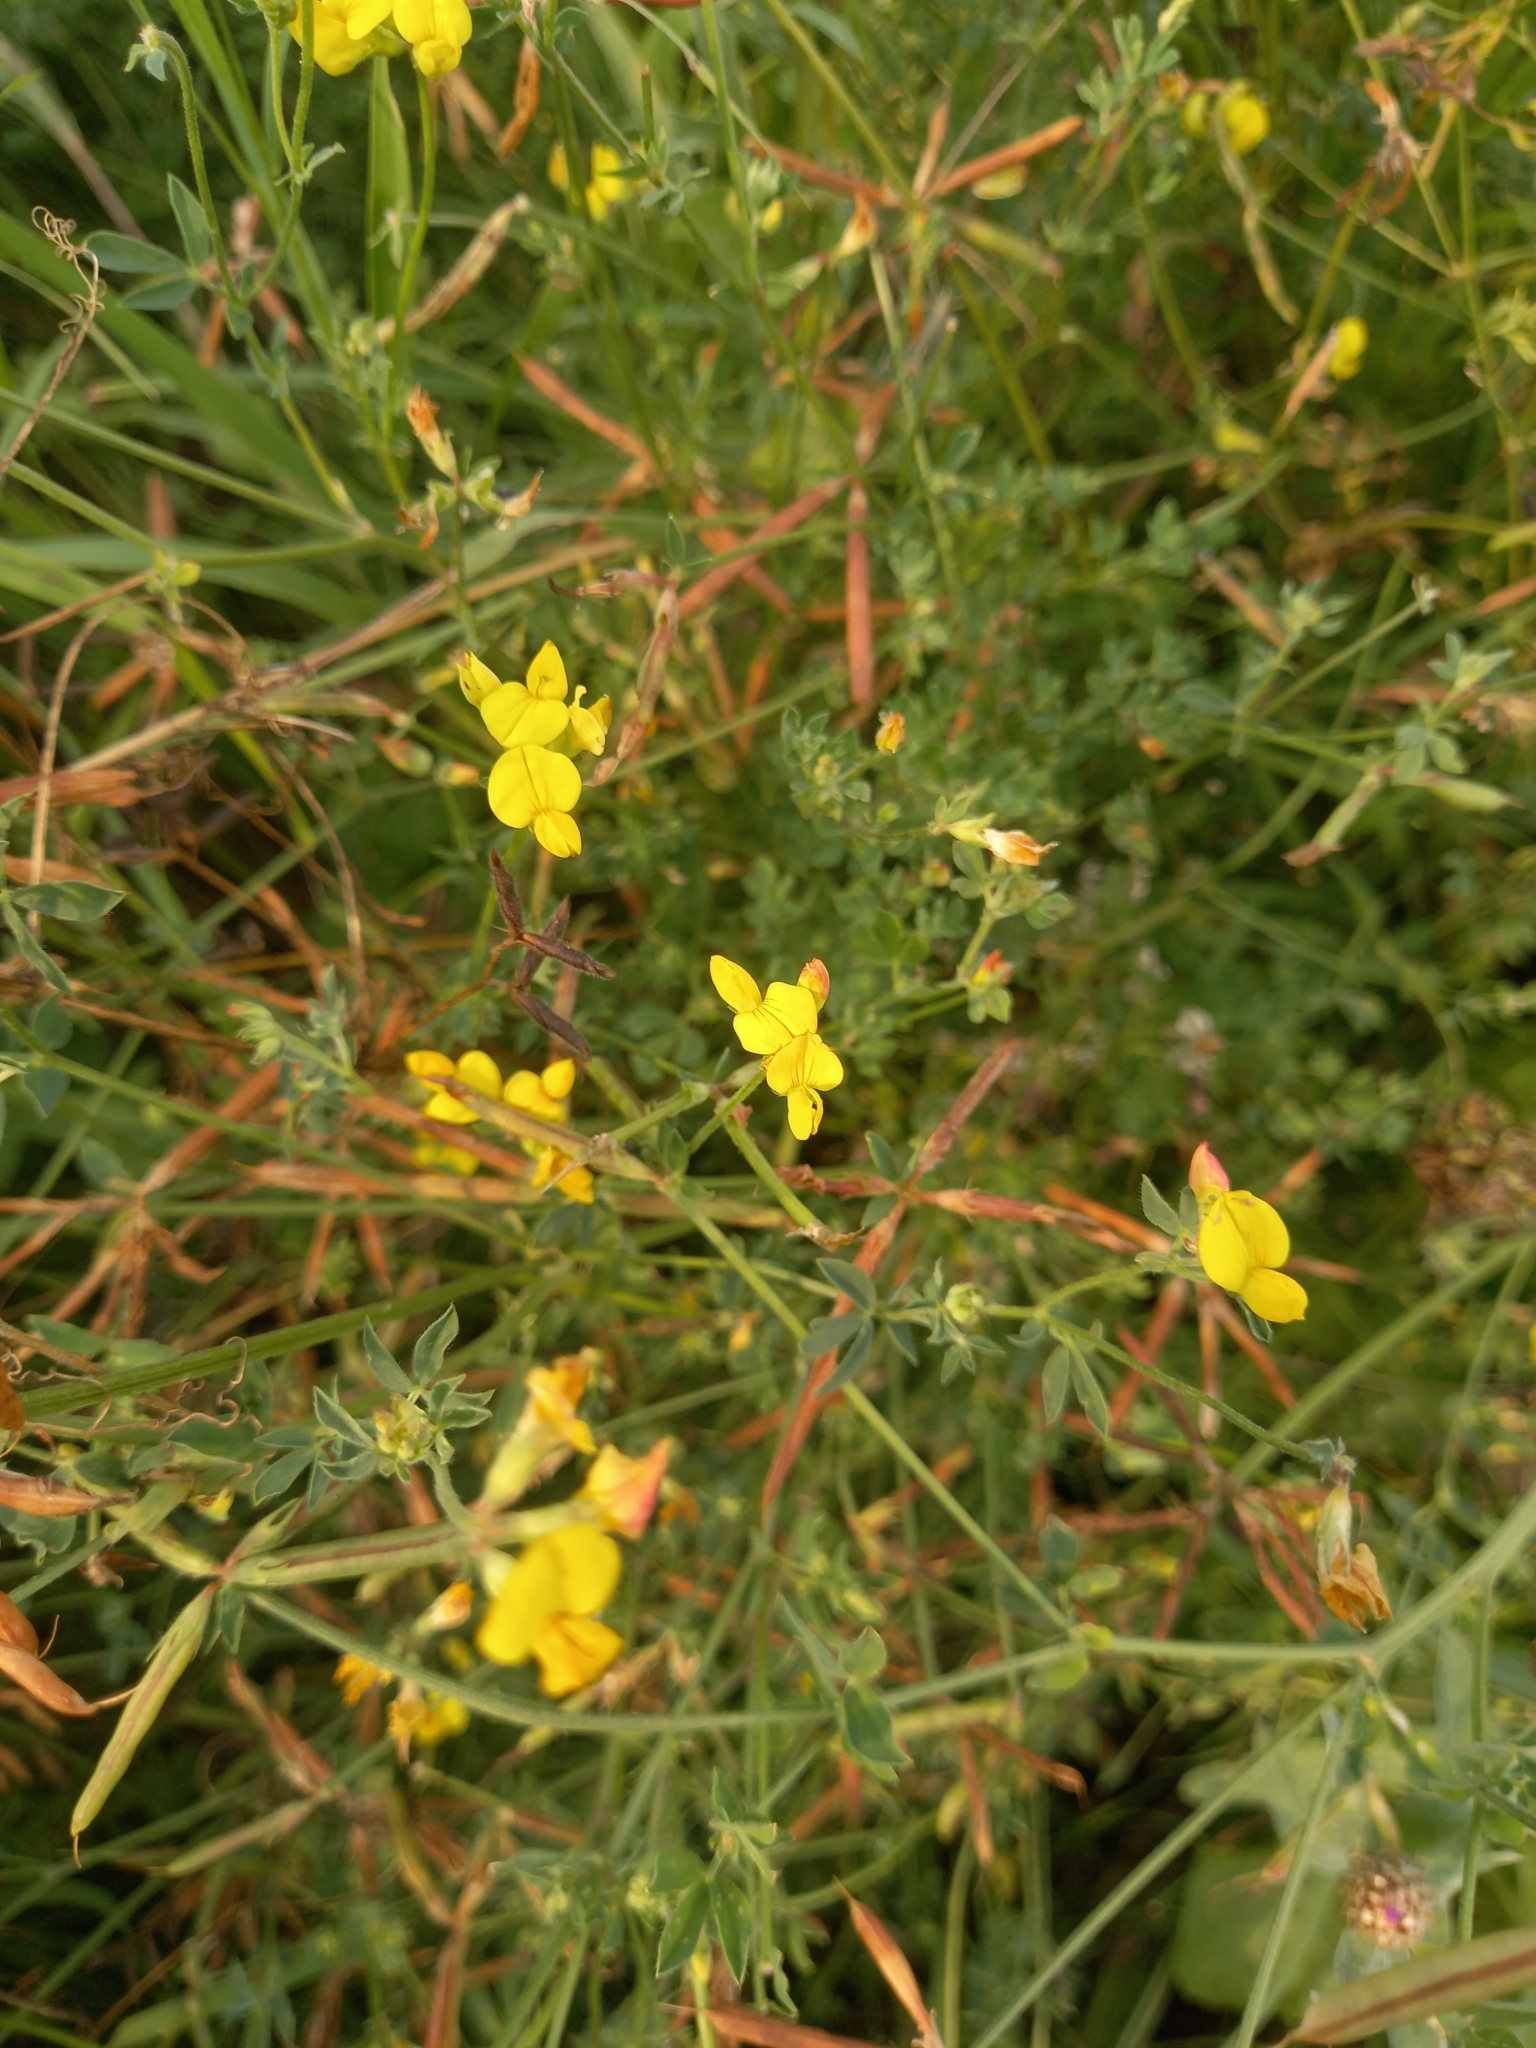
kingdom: Plantae
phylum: Tracheophyta
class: Magnoliopsida
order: Fabales
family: Fabaceae
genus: Lotus
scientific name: Lotus corniculatus
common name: Common bird's-foot-trefoil
